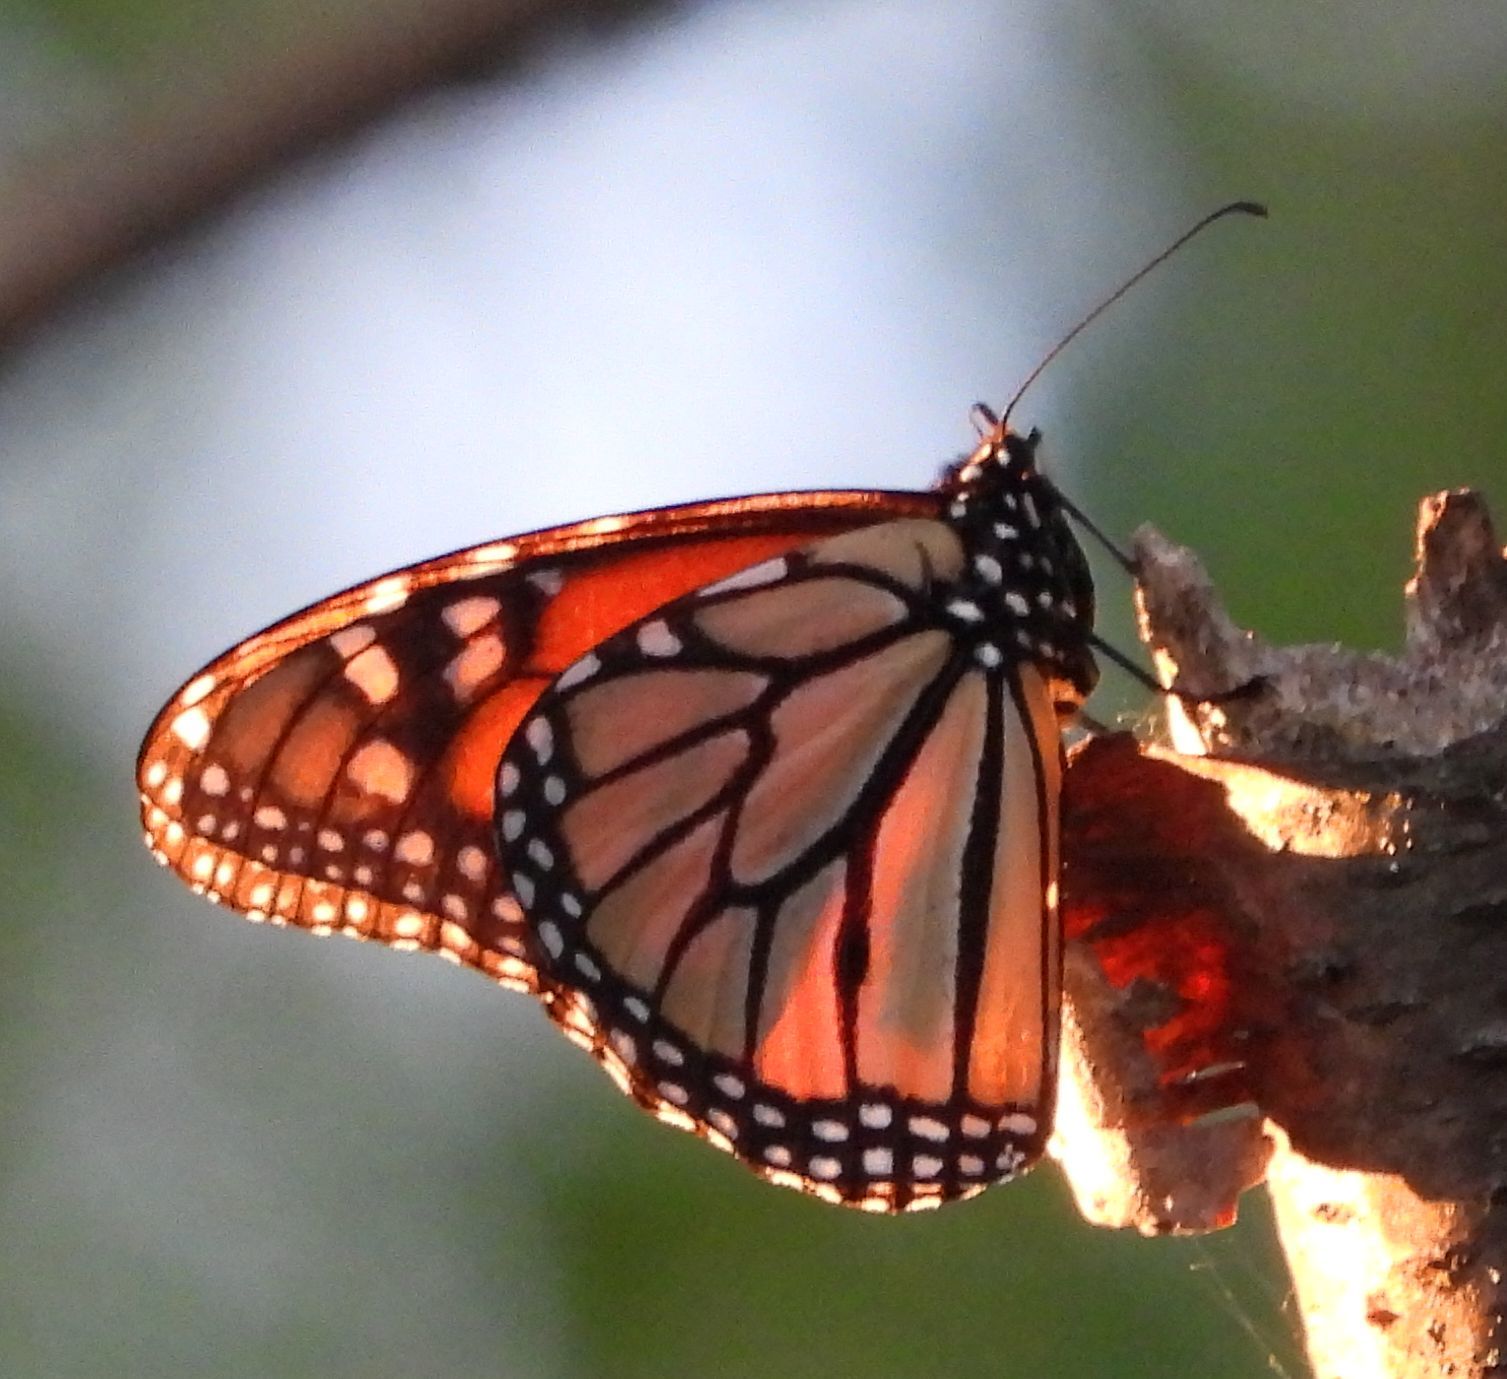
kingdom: Animalia
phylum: Arthropoda
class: Insecta
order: Lepidoptera
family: Nymphalidae
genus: Danaus
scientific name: Danaus plexippus
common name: Monarch
